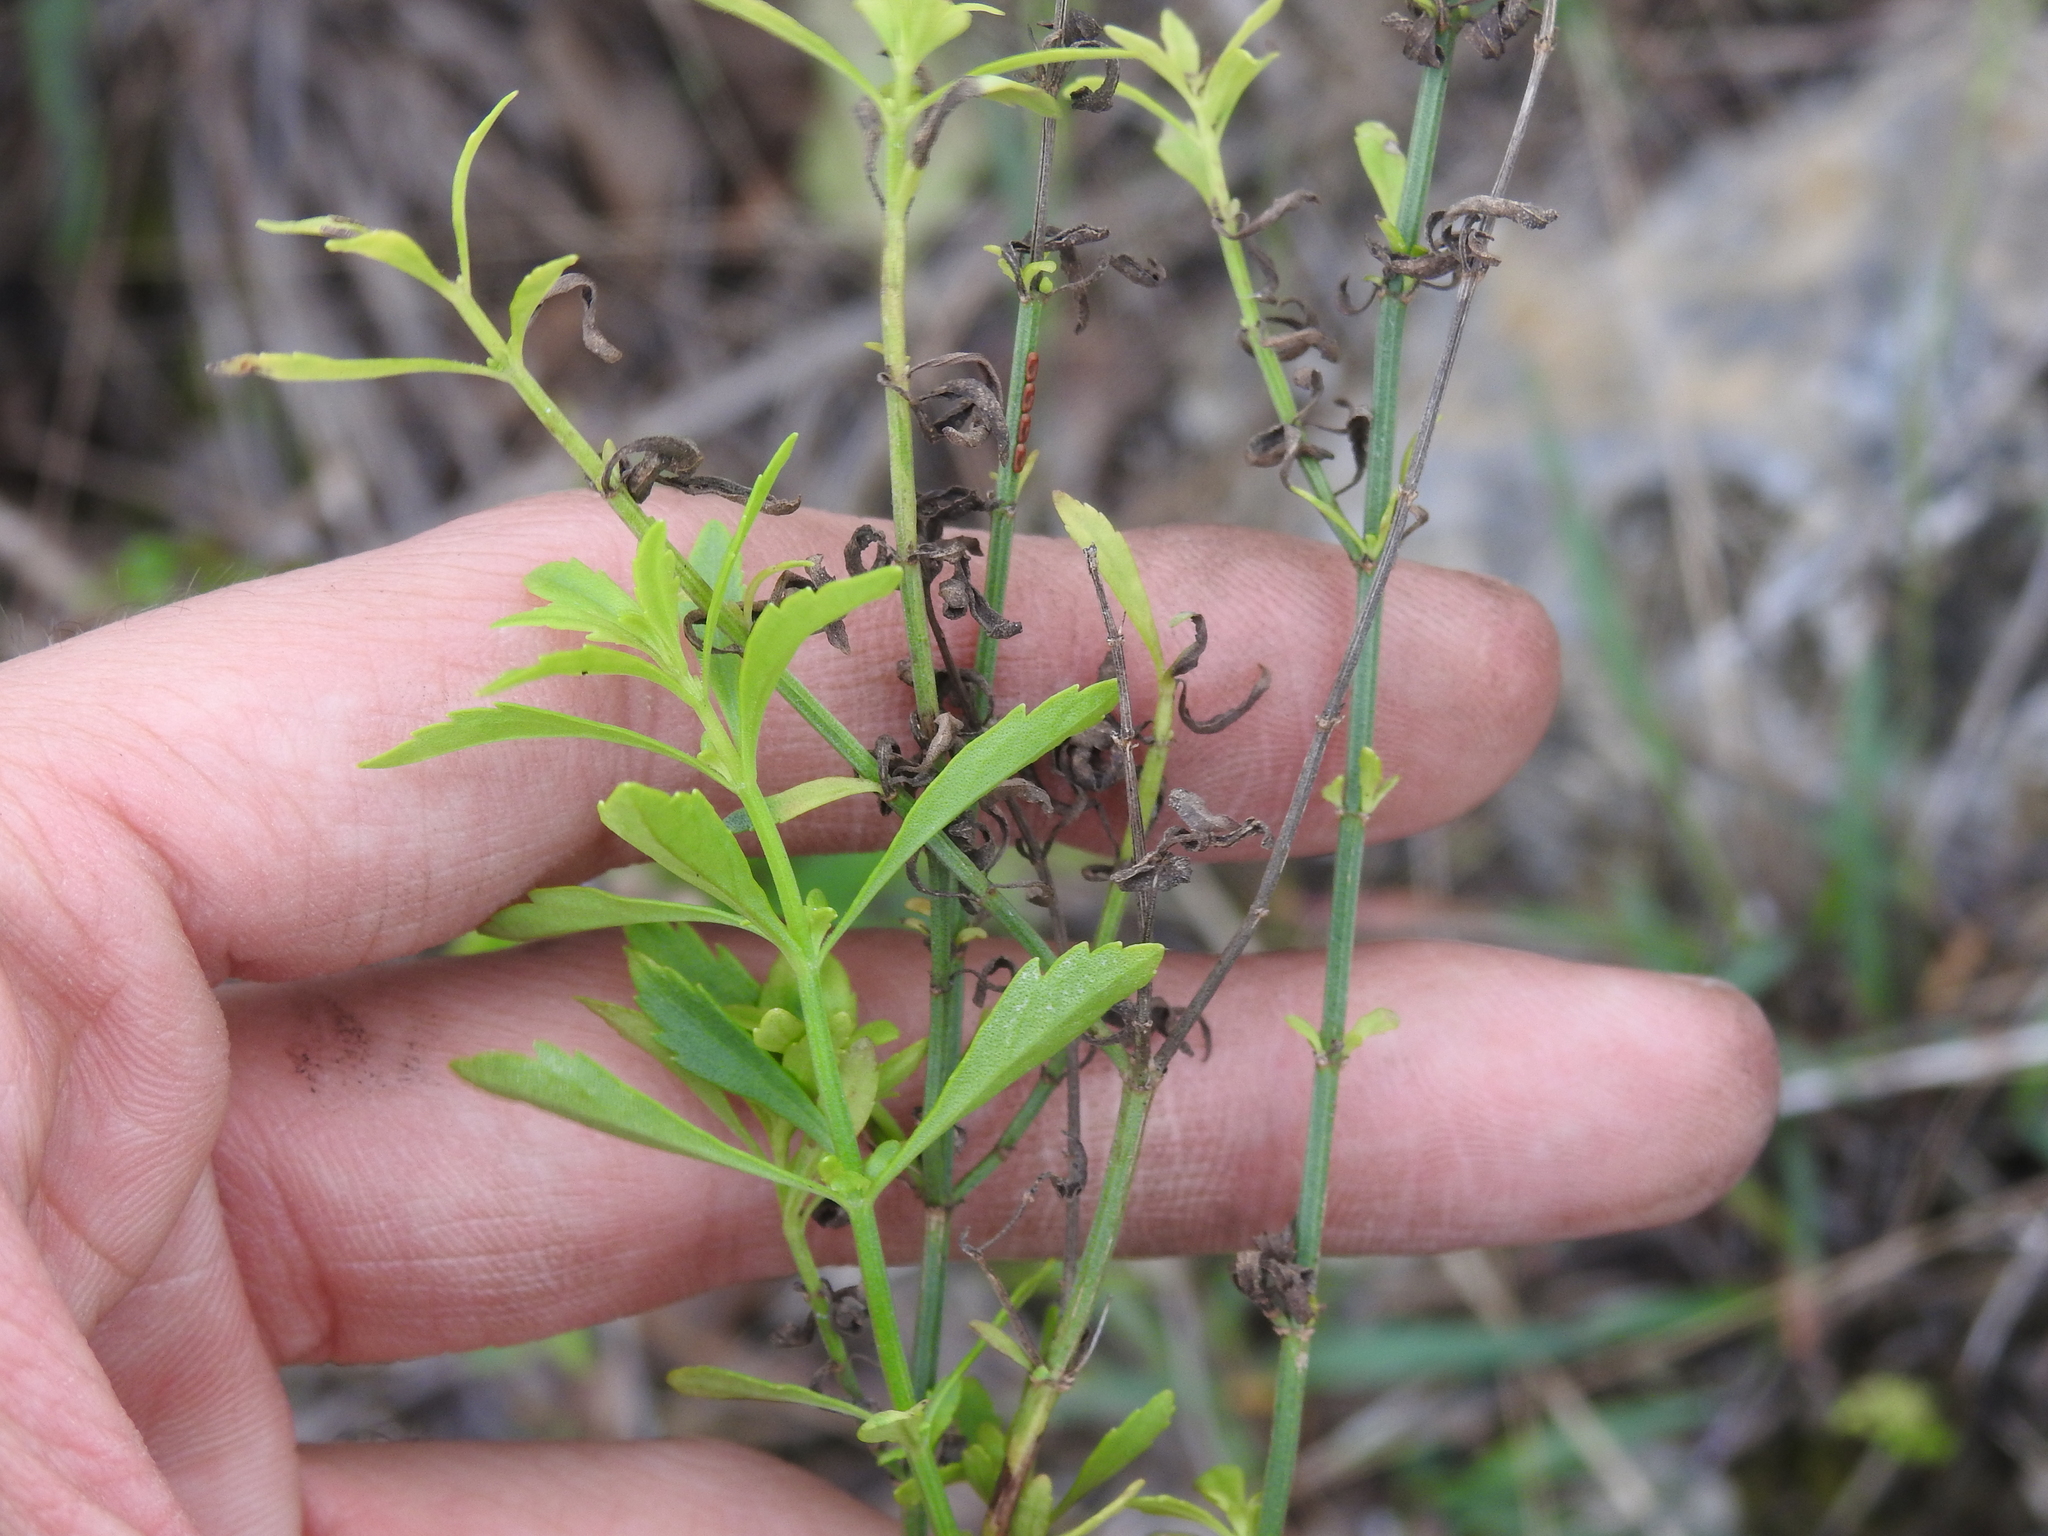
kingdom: Plantae
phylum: Tracheophyta
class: Magnoliopsida
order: Lamiales
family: Plantaginaceae
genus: Scoparia
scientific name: Scoparia dulcis
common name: Scoparia-weed
